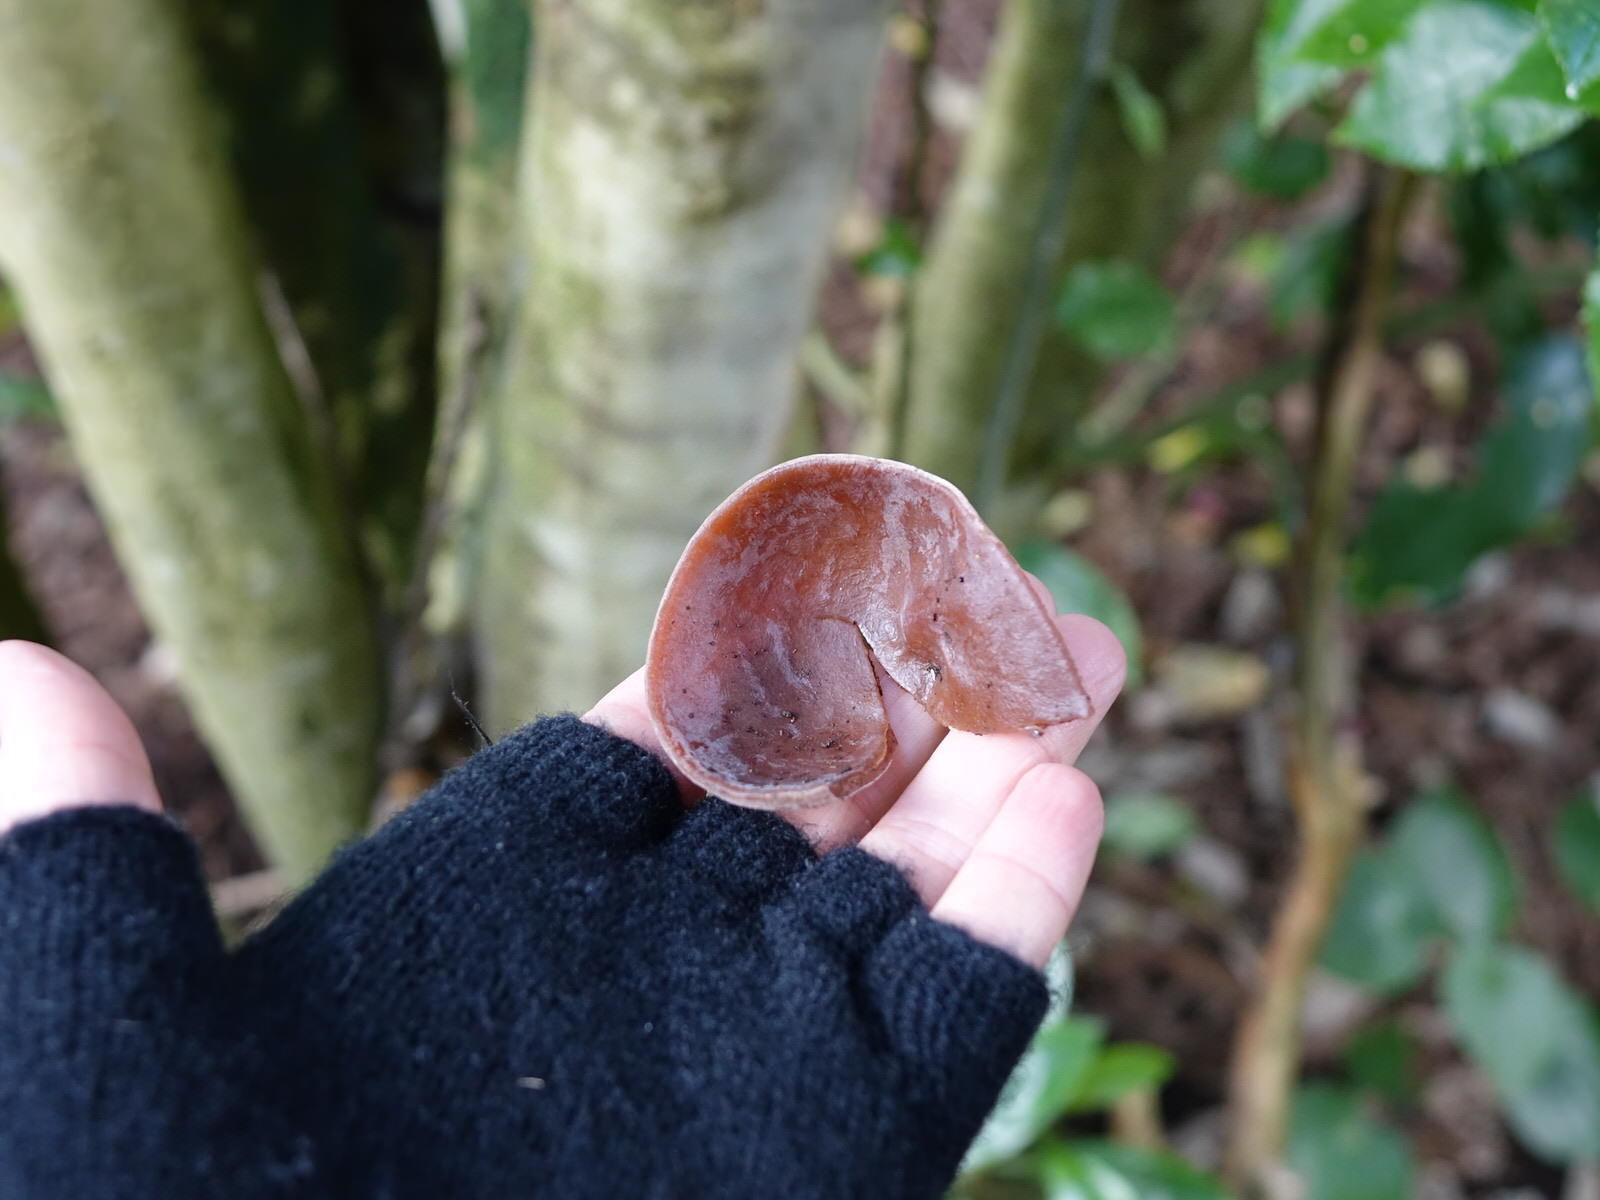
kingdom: Fungi
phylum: Basidiomycota
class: Agaricomycetes
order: Auriculariales
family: Auriculariaceae
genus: Auricularia
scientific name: Auricularia cornea
